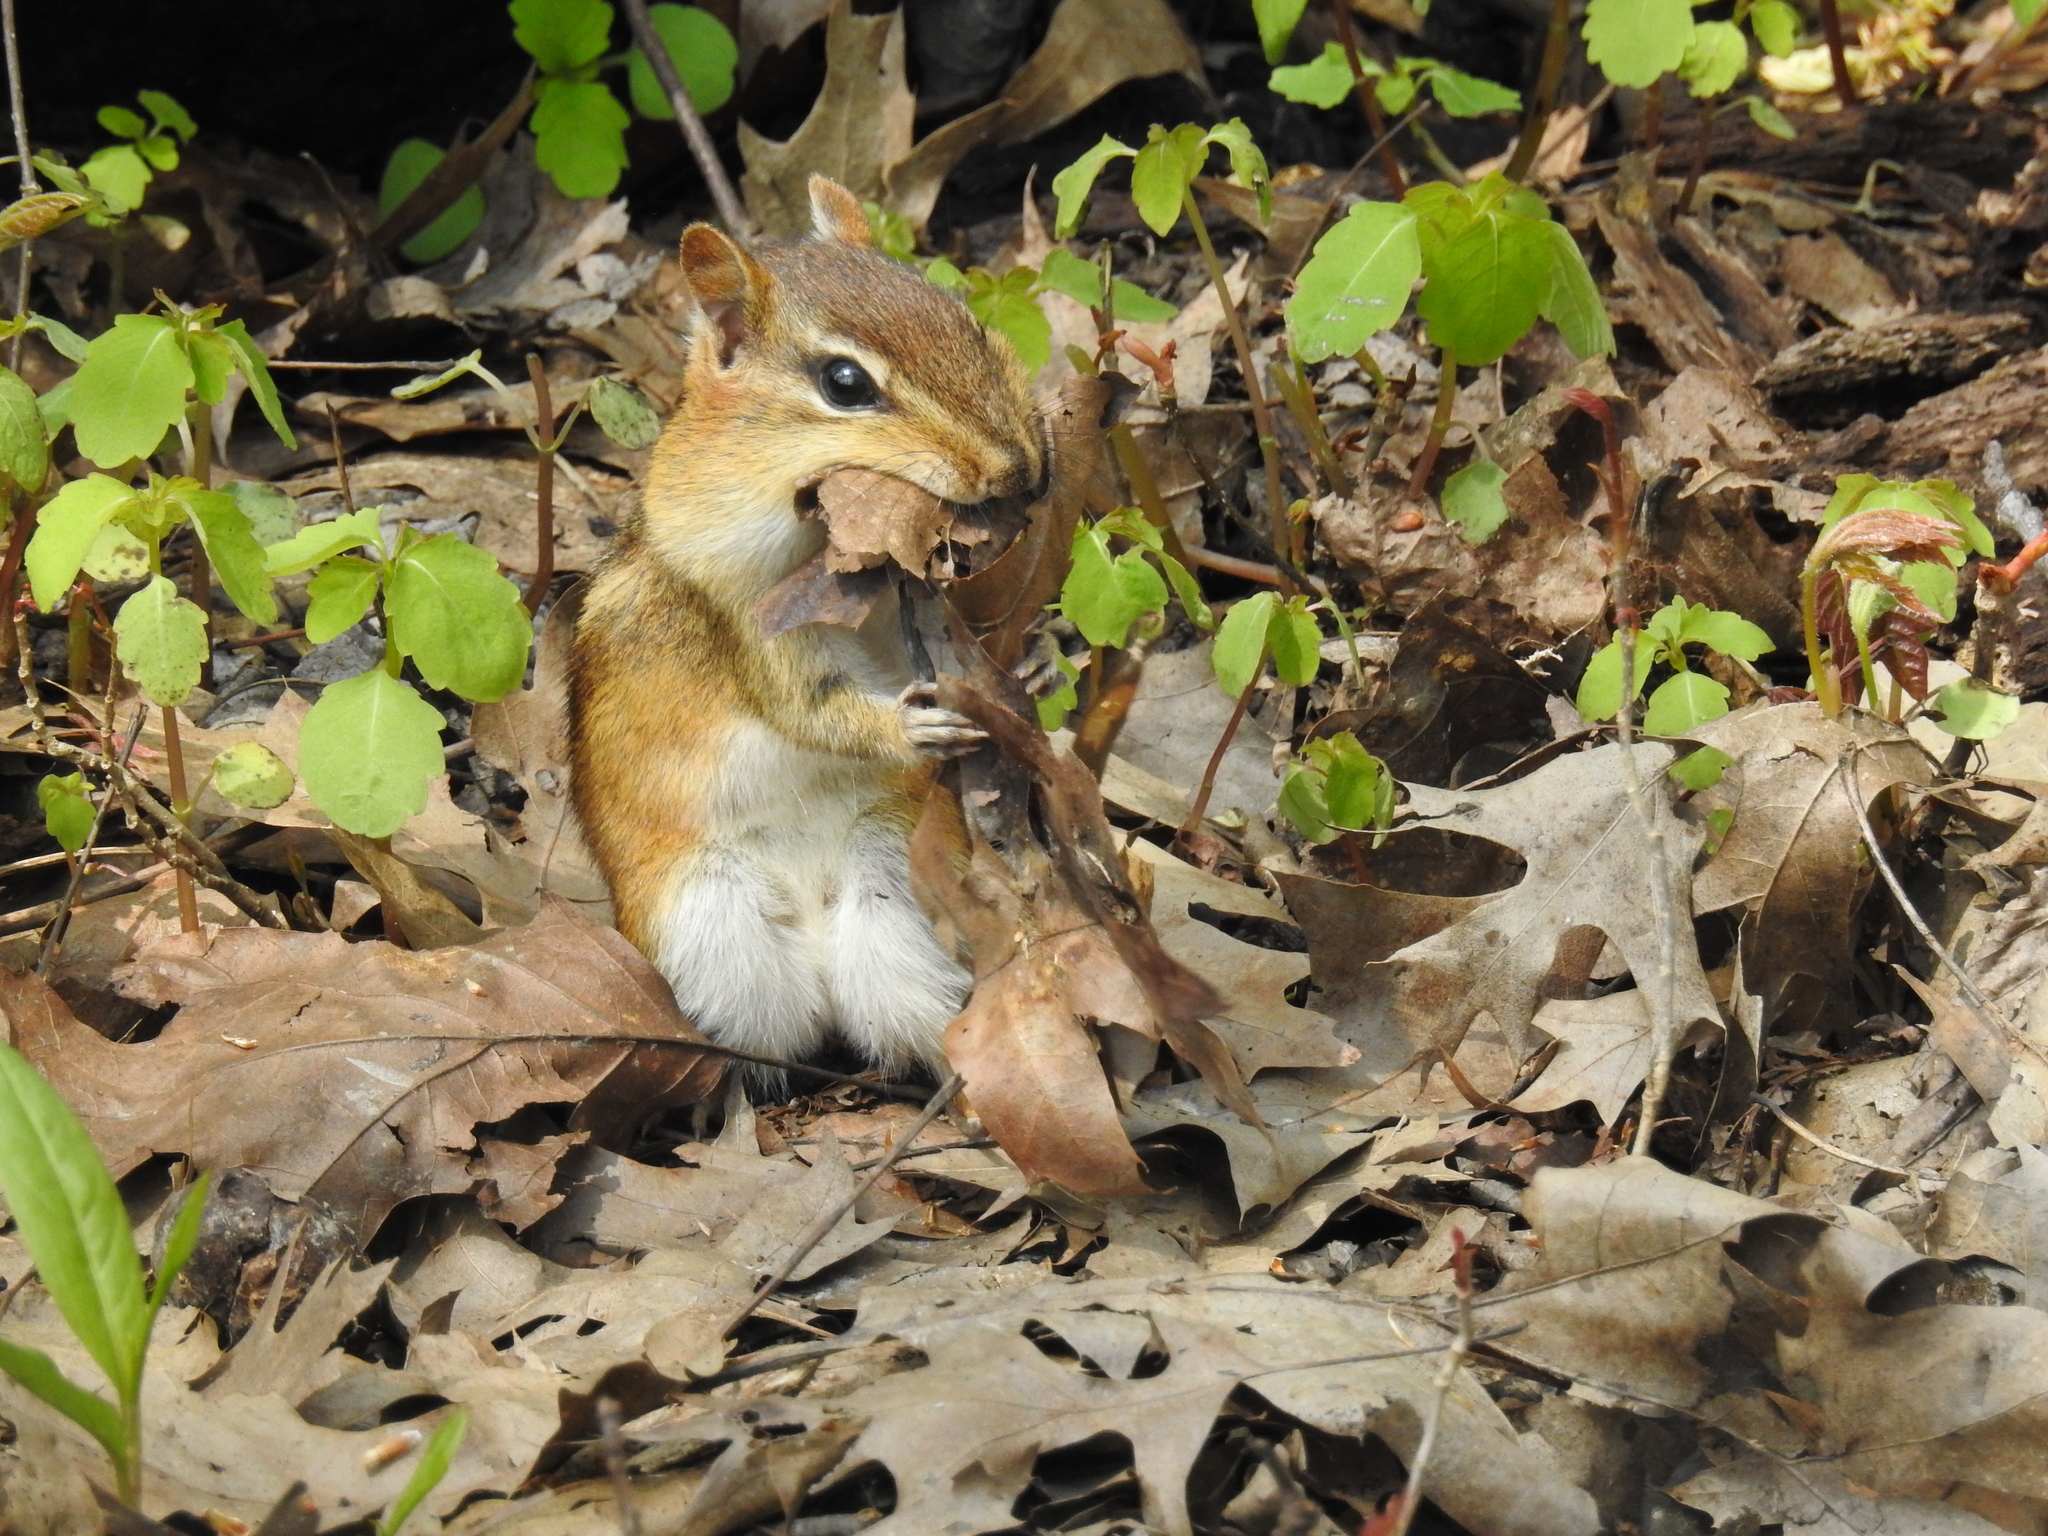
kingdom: Animalia
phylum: Chordata
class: Mammalia
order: Rodentia
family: Sciuridae
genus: Tamias
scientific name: Tamias striatus
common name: Eastern chipmunk
